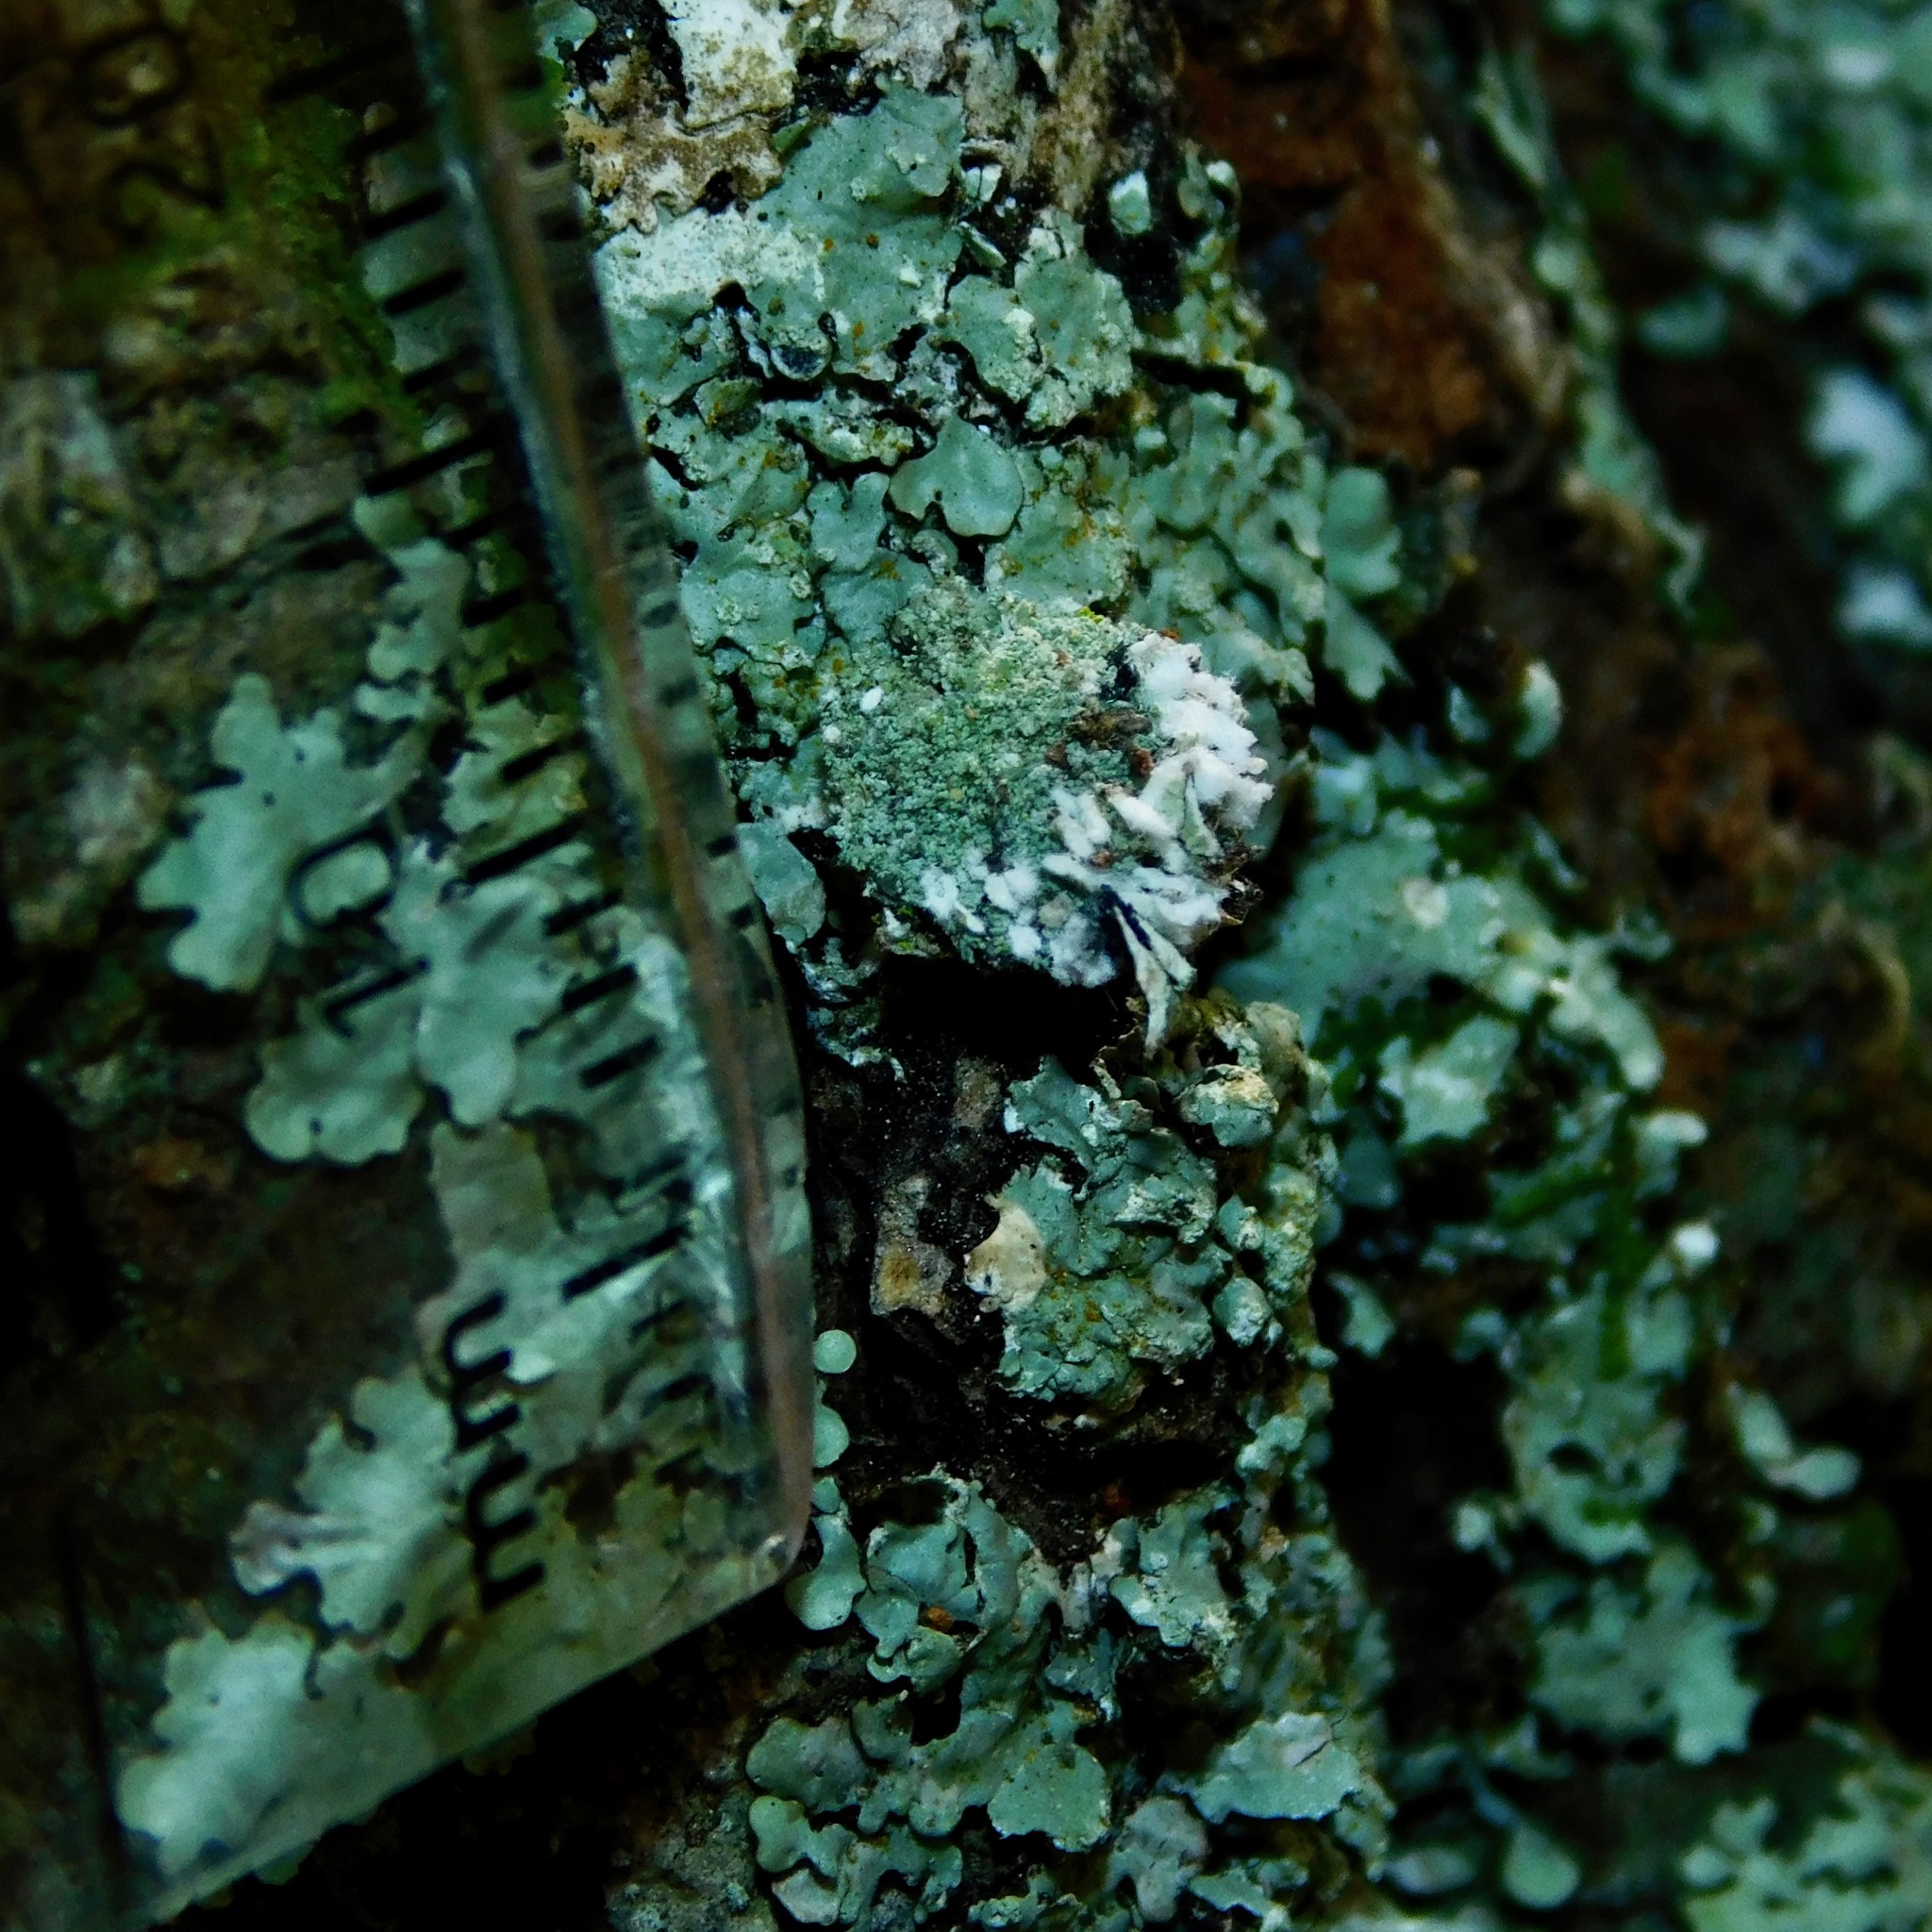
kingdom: Animalia
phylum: Arthropoda
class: Insecta
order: Neuroptera
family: Chrysopidae
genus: Leucochrysa
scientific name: Leucochrysa pavida
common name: Lichen-carrying green lacewing
